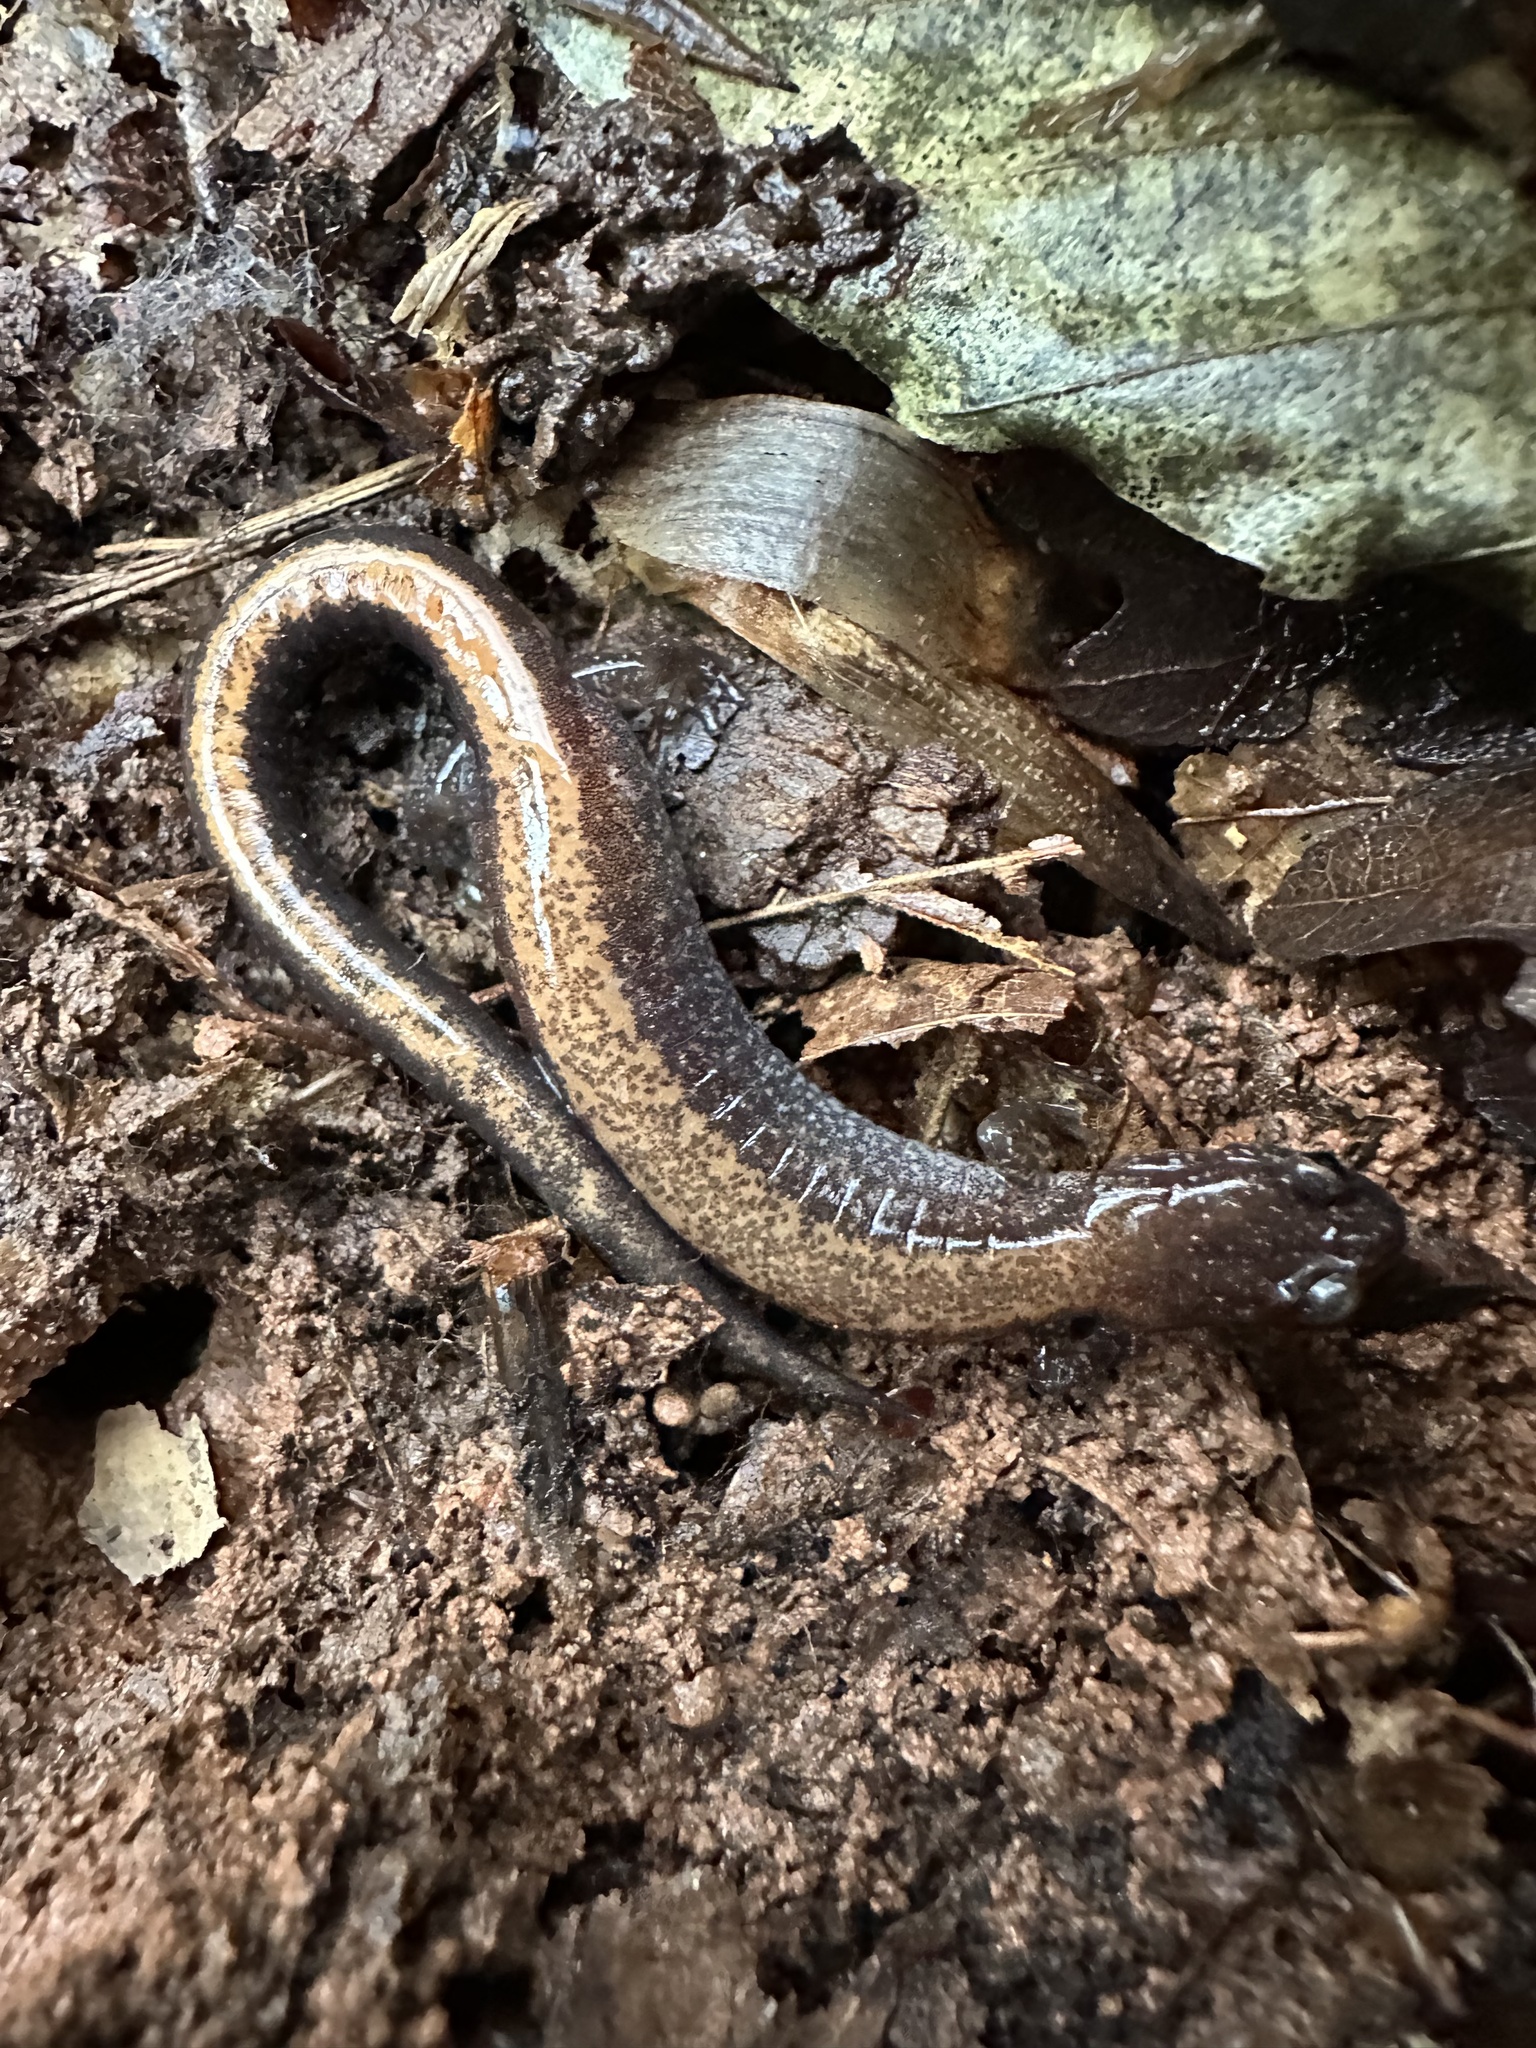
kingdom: Animalia
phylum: Chordata
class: Amphibia
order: Caudata
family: Plethodontidae
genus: Plethodon
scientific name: Plethodon cinereus
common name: Redback salamander
